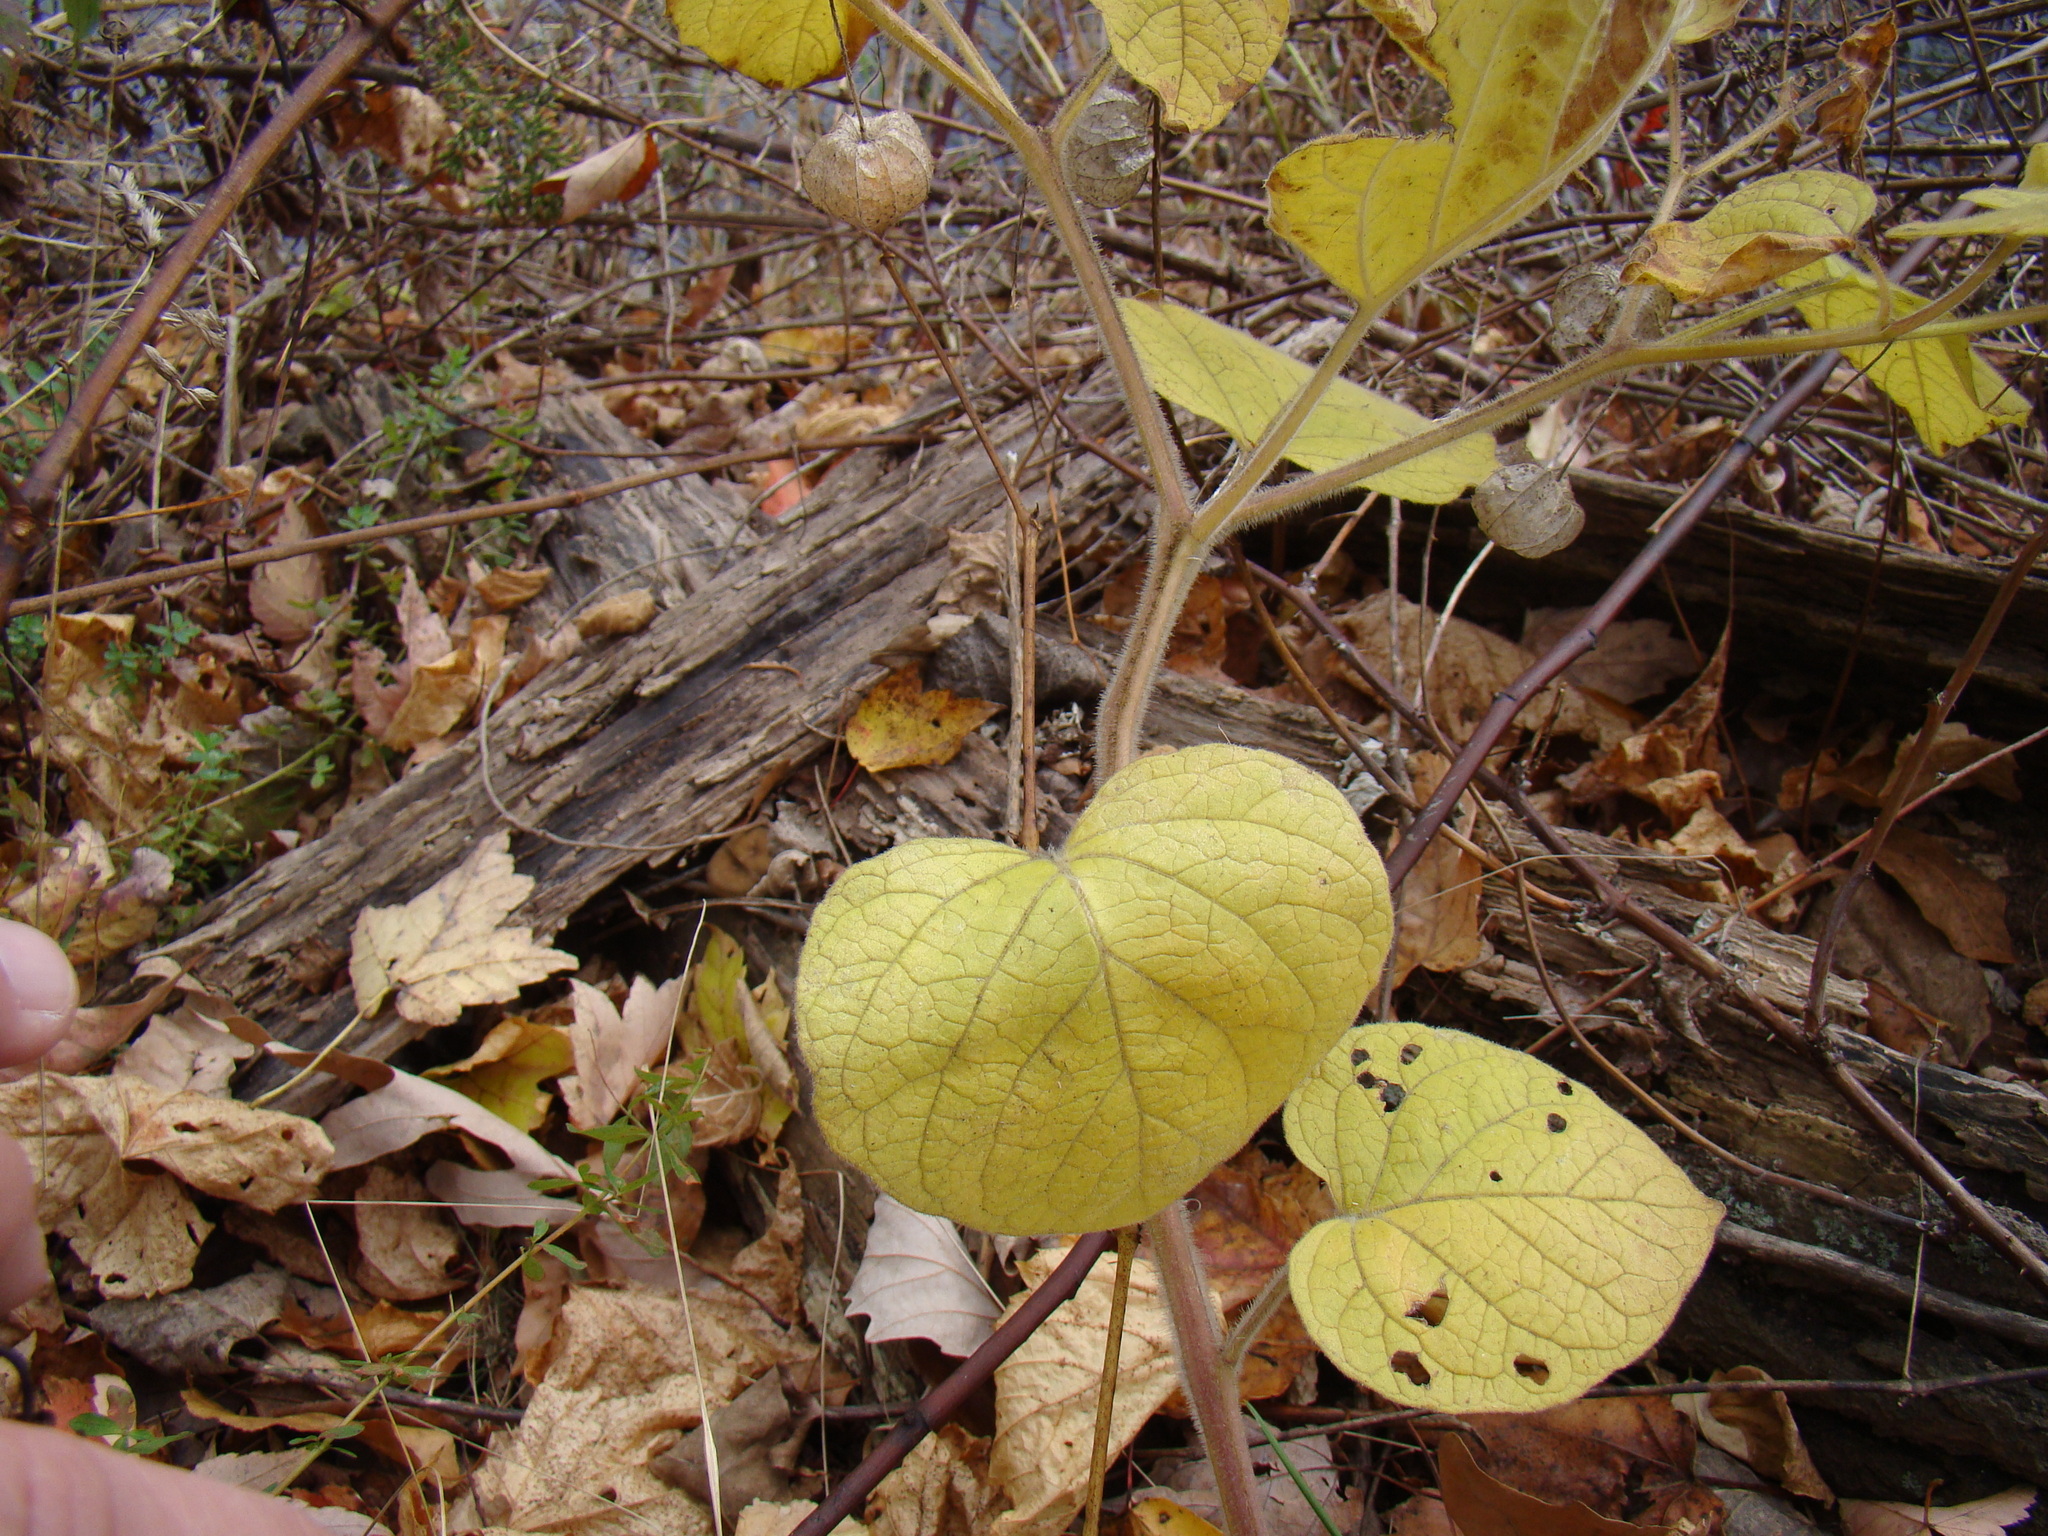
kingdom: Plantae
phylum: Tracheophyta
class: Magnoliopsida
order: Solanales
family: Solanaceae
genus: Physalis
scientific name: Physalis heterophylla
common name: Clammy ground-cherry
